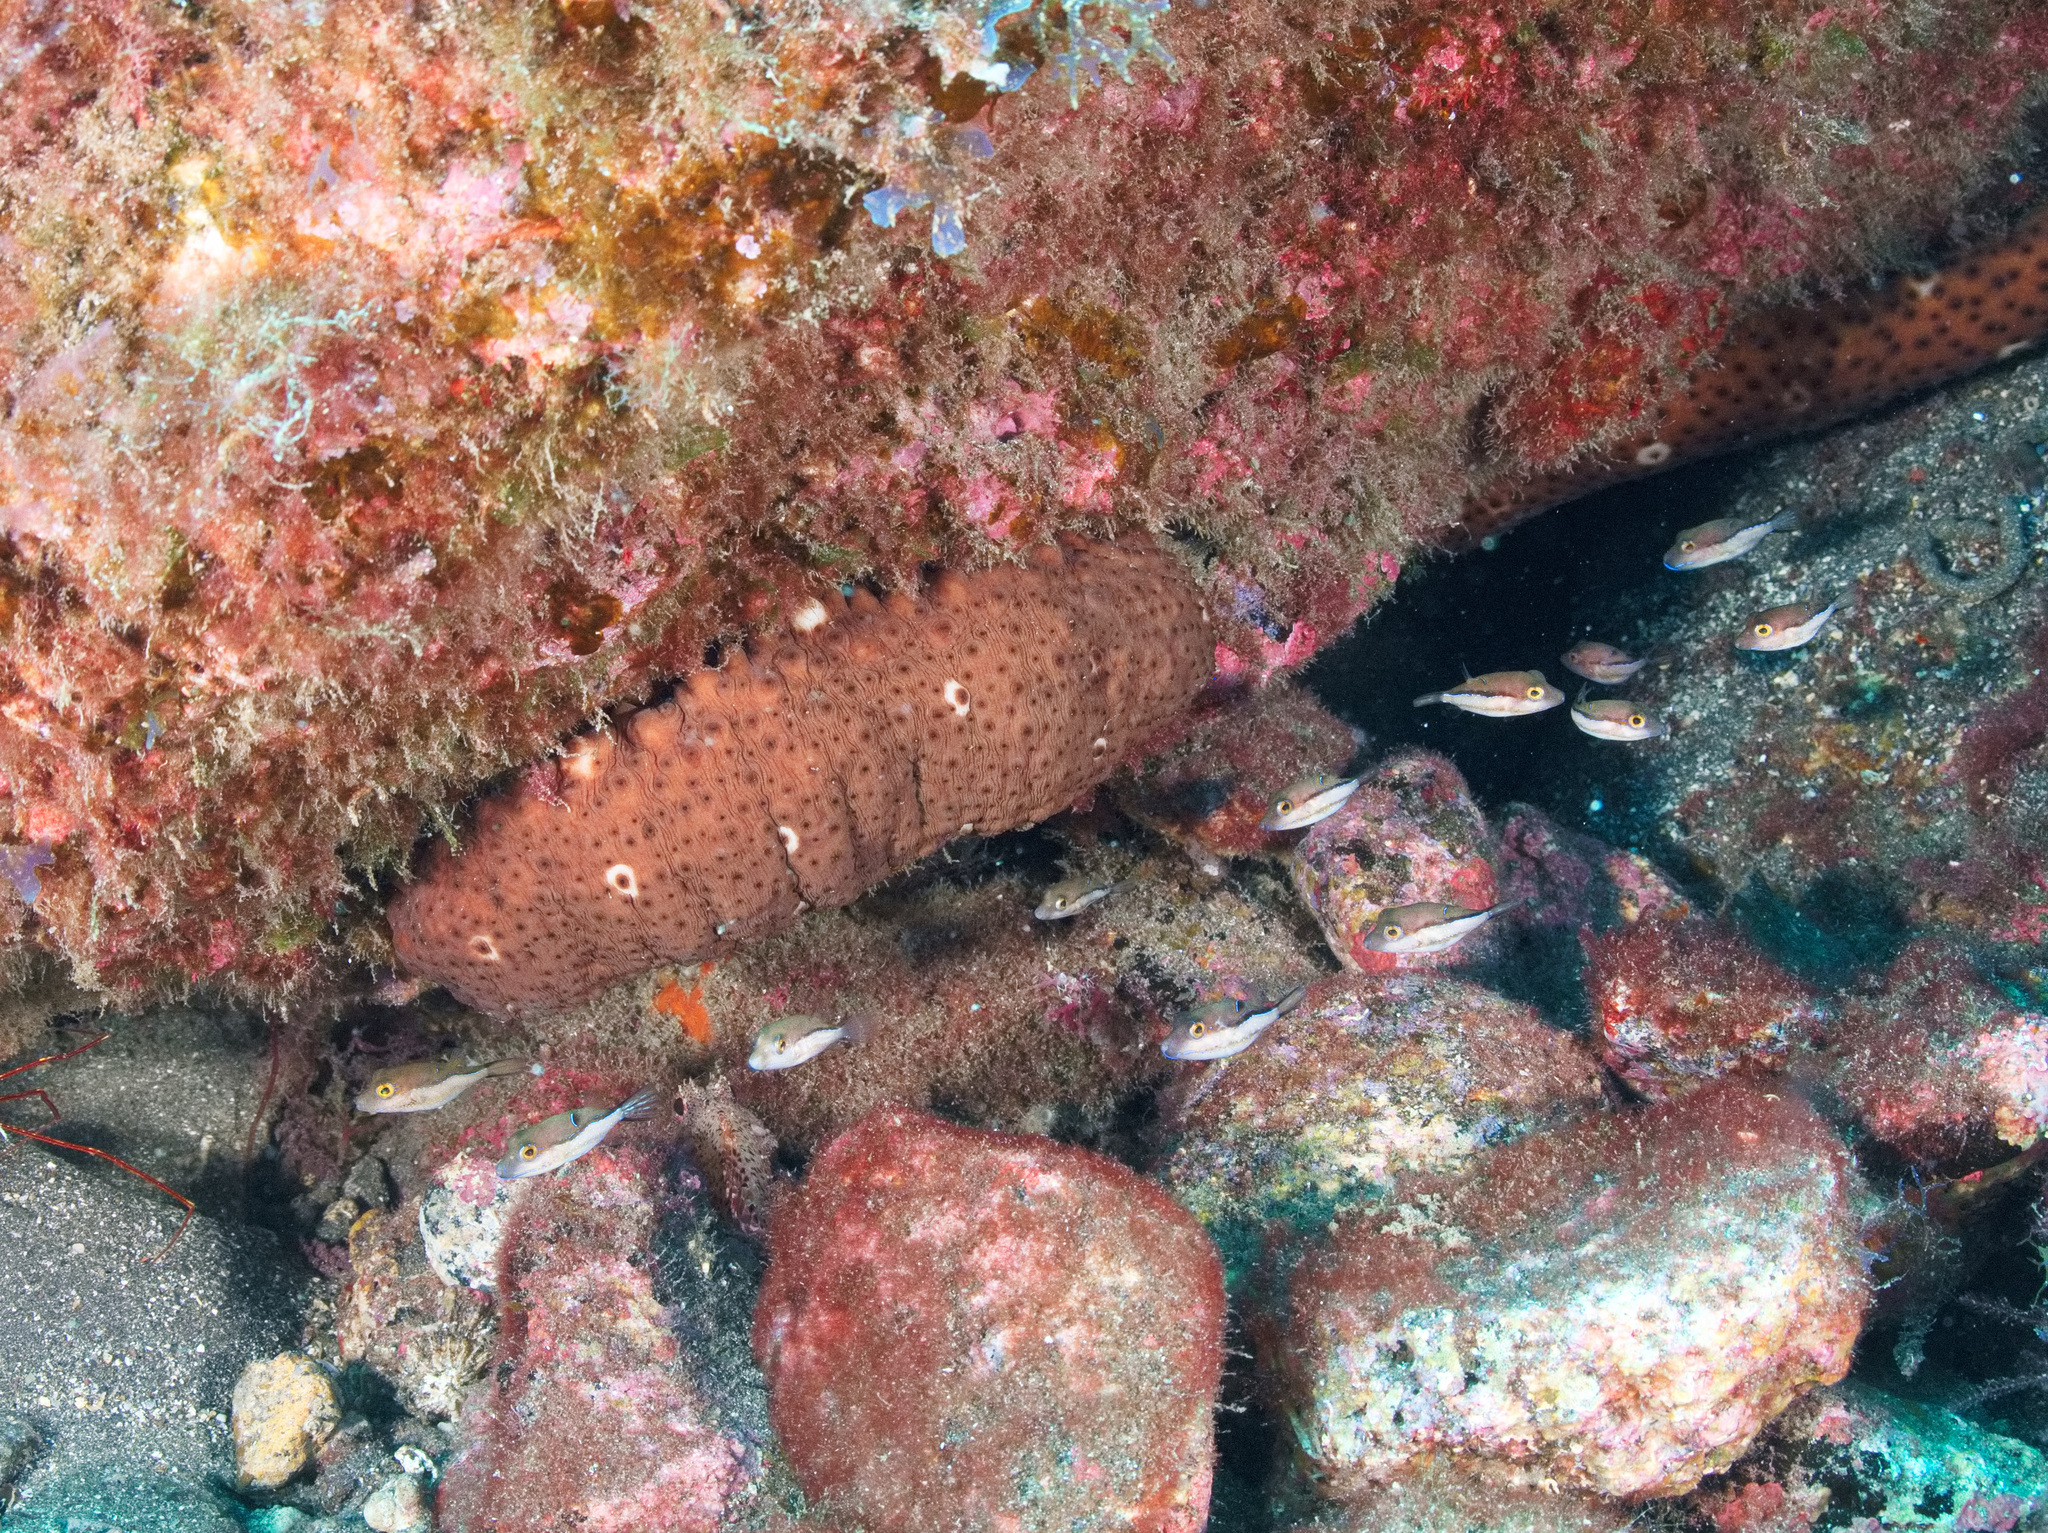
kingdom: Animalia
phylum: Echinodermata
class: Holothuroidea
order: Holothuriida
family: Holothuriidae
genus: Holothuria
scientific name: Holothuria sanctori
